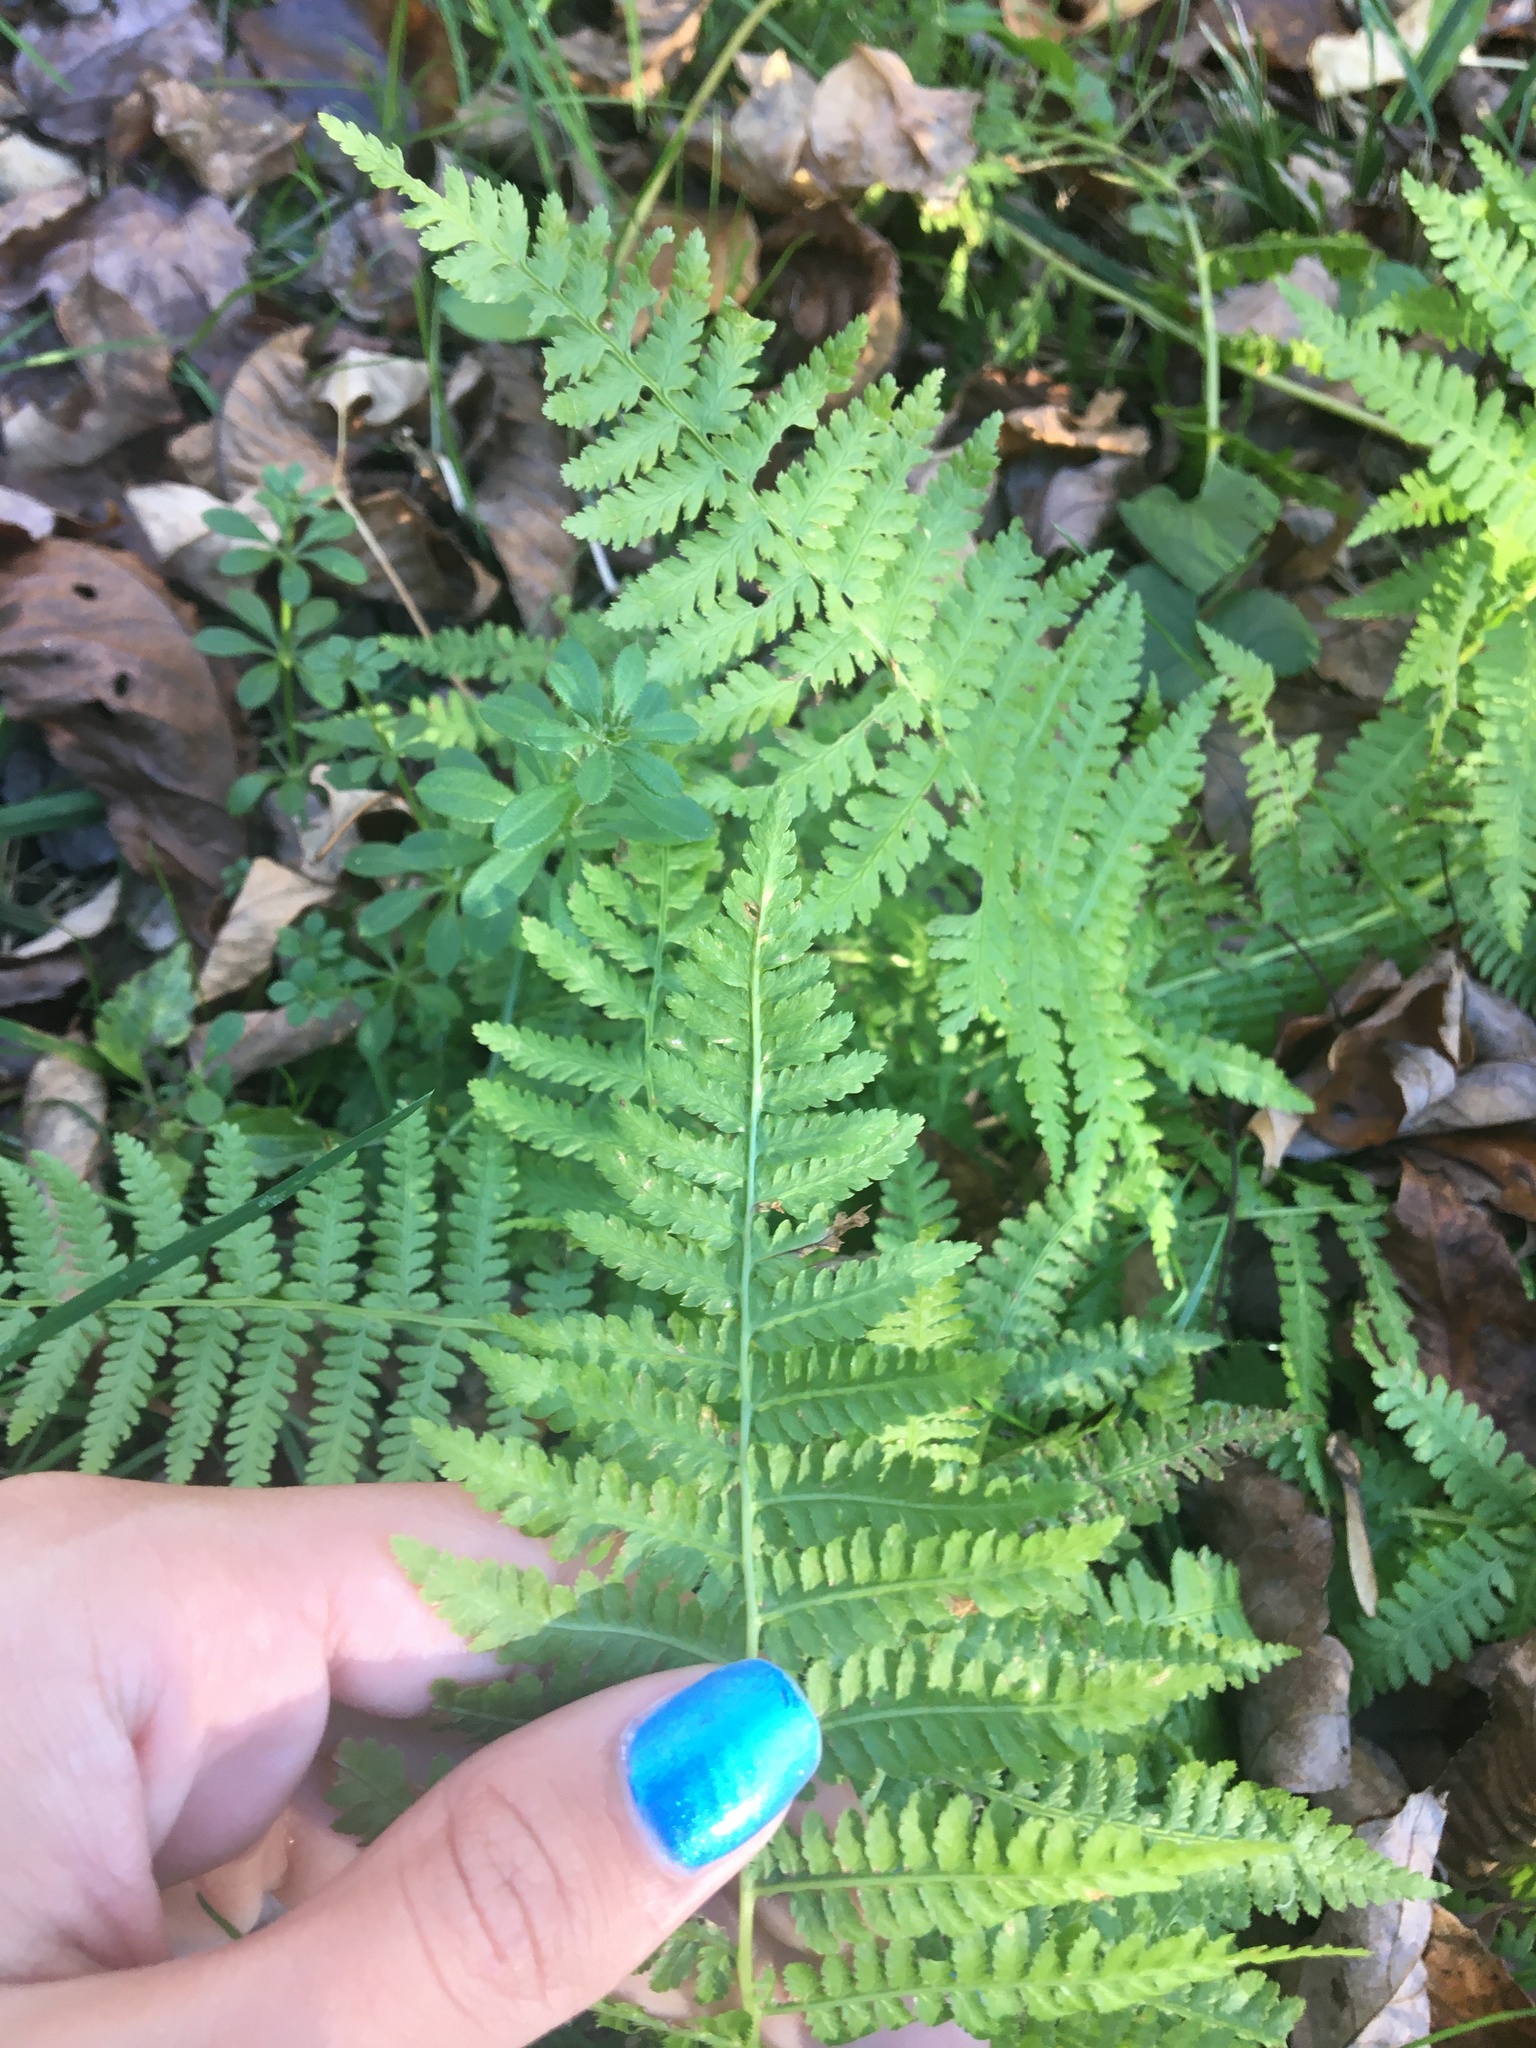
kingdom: Plantae
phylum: Tracheophyta
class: Polypodiopsida
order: Polypodiales
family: Athyriaceae
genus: Athyrium
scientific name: Athyrium angustum
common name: Northern lady fern
